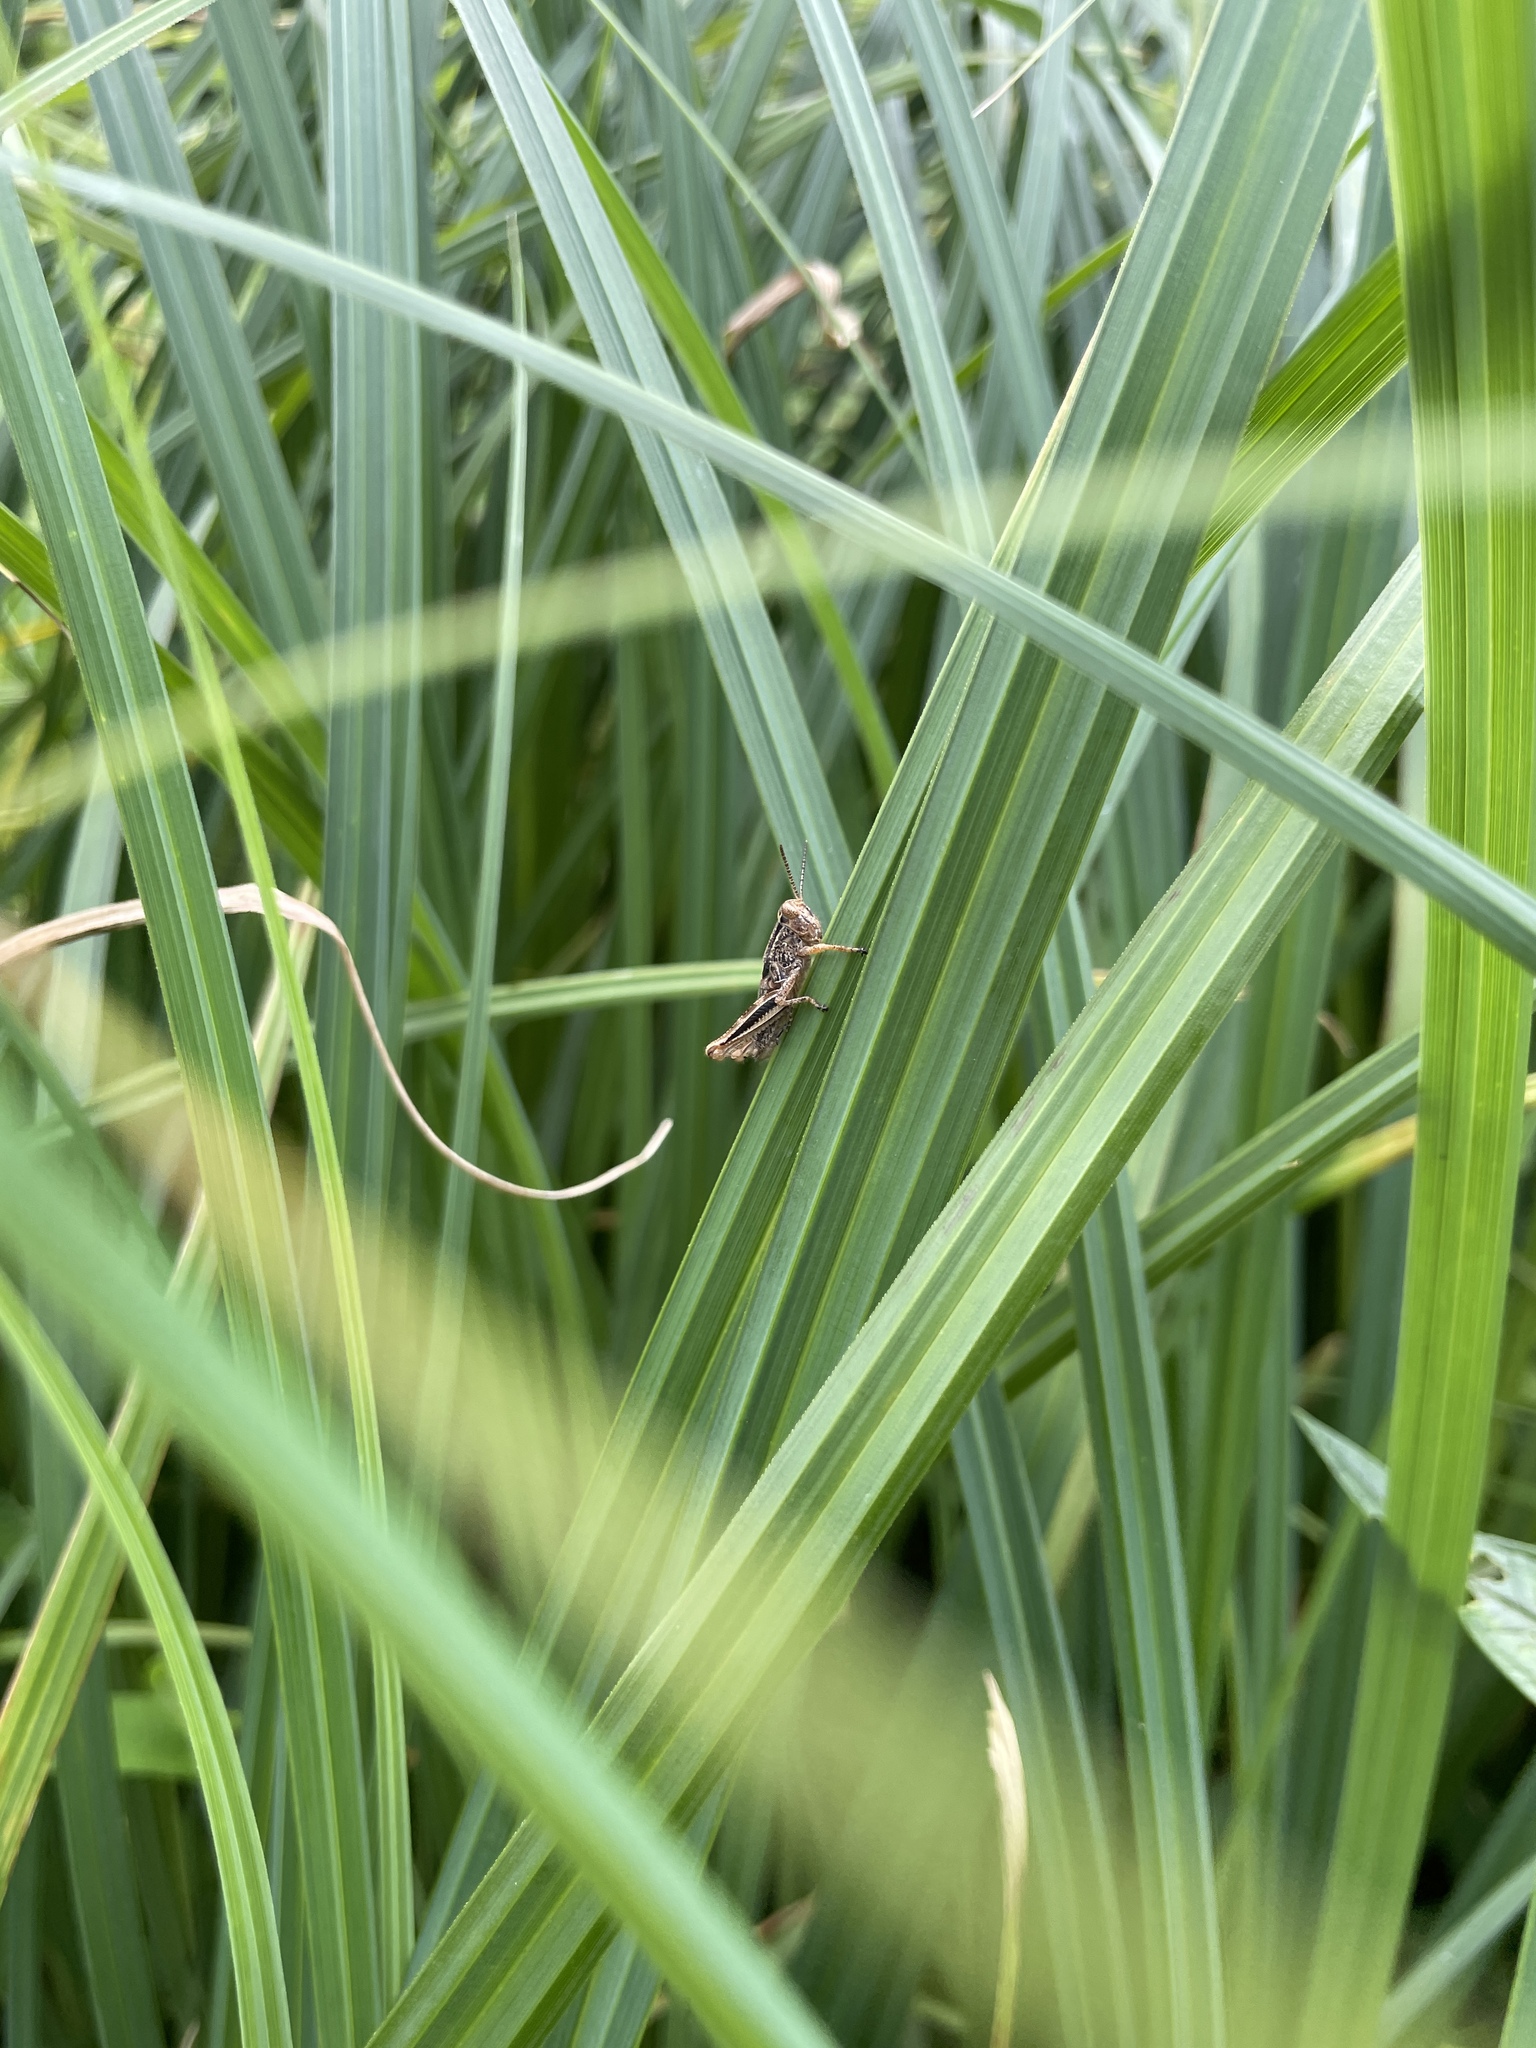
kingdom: Plantae
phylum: Tracheophyta
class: Liliopsida
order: Poales
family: Typhaceae
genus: Sparganium
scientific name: Sparganium eurycarpum
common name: Broad-fruited burreed
